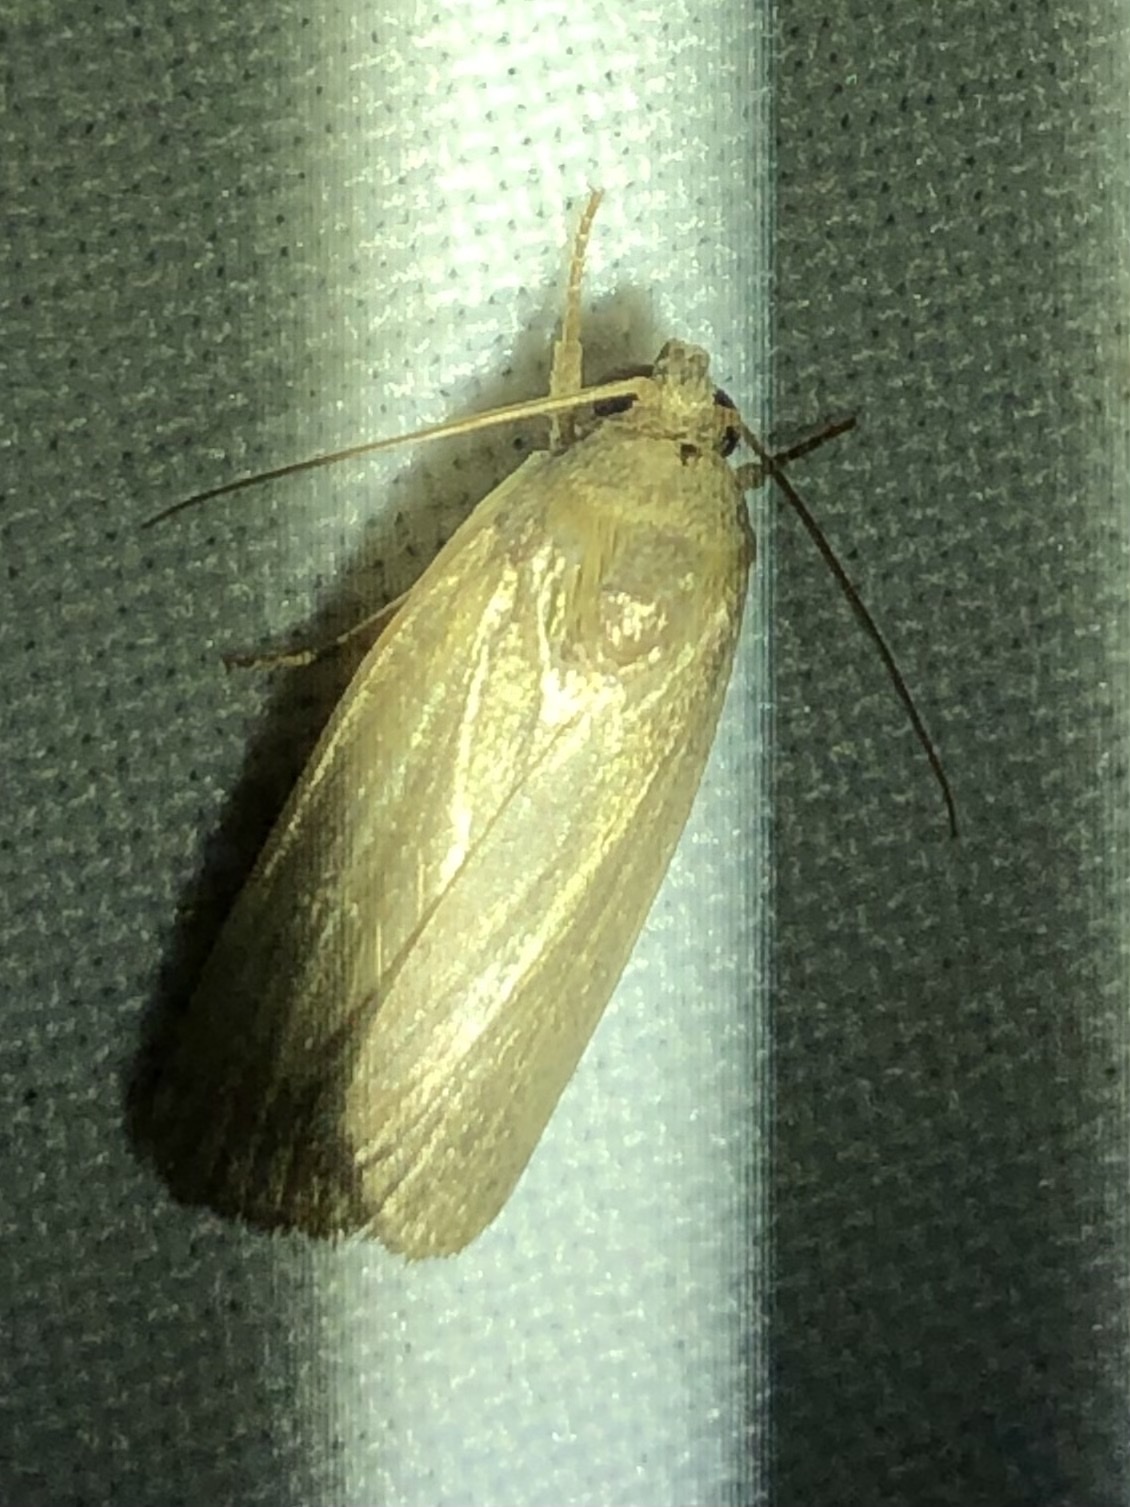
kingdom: Animalia
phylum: Arthropoda
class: Insecta
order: Lepidoptera
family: Noctuidae
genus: Athetis
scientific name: Athetis hospes
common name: Porter's rustic
